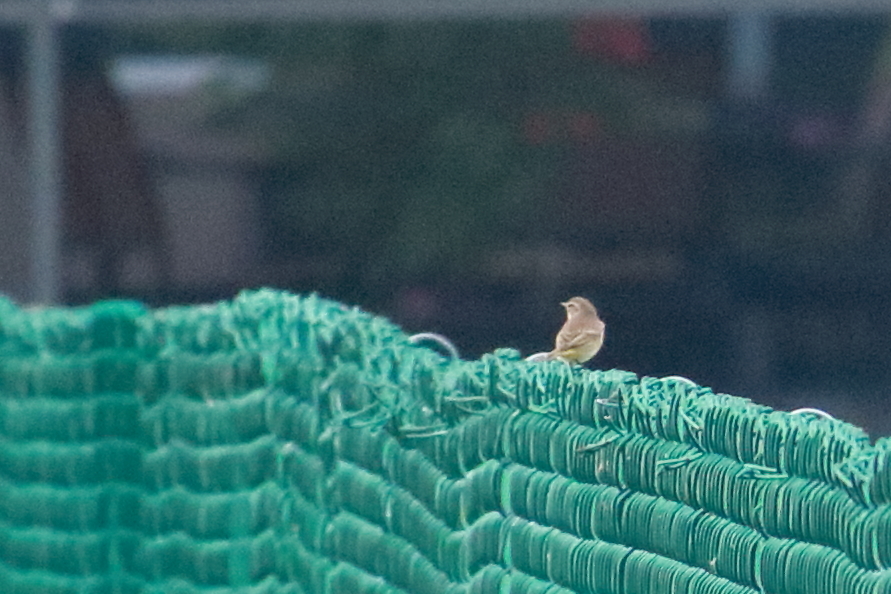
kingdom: Animalia
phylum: Chordata
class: Aves
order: Passeriformes
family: Parulidae
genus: Setophaga
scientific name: Setophaga palmarum
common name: Palm warbler
